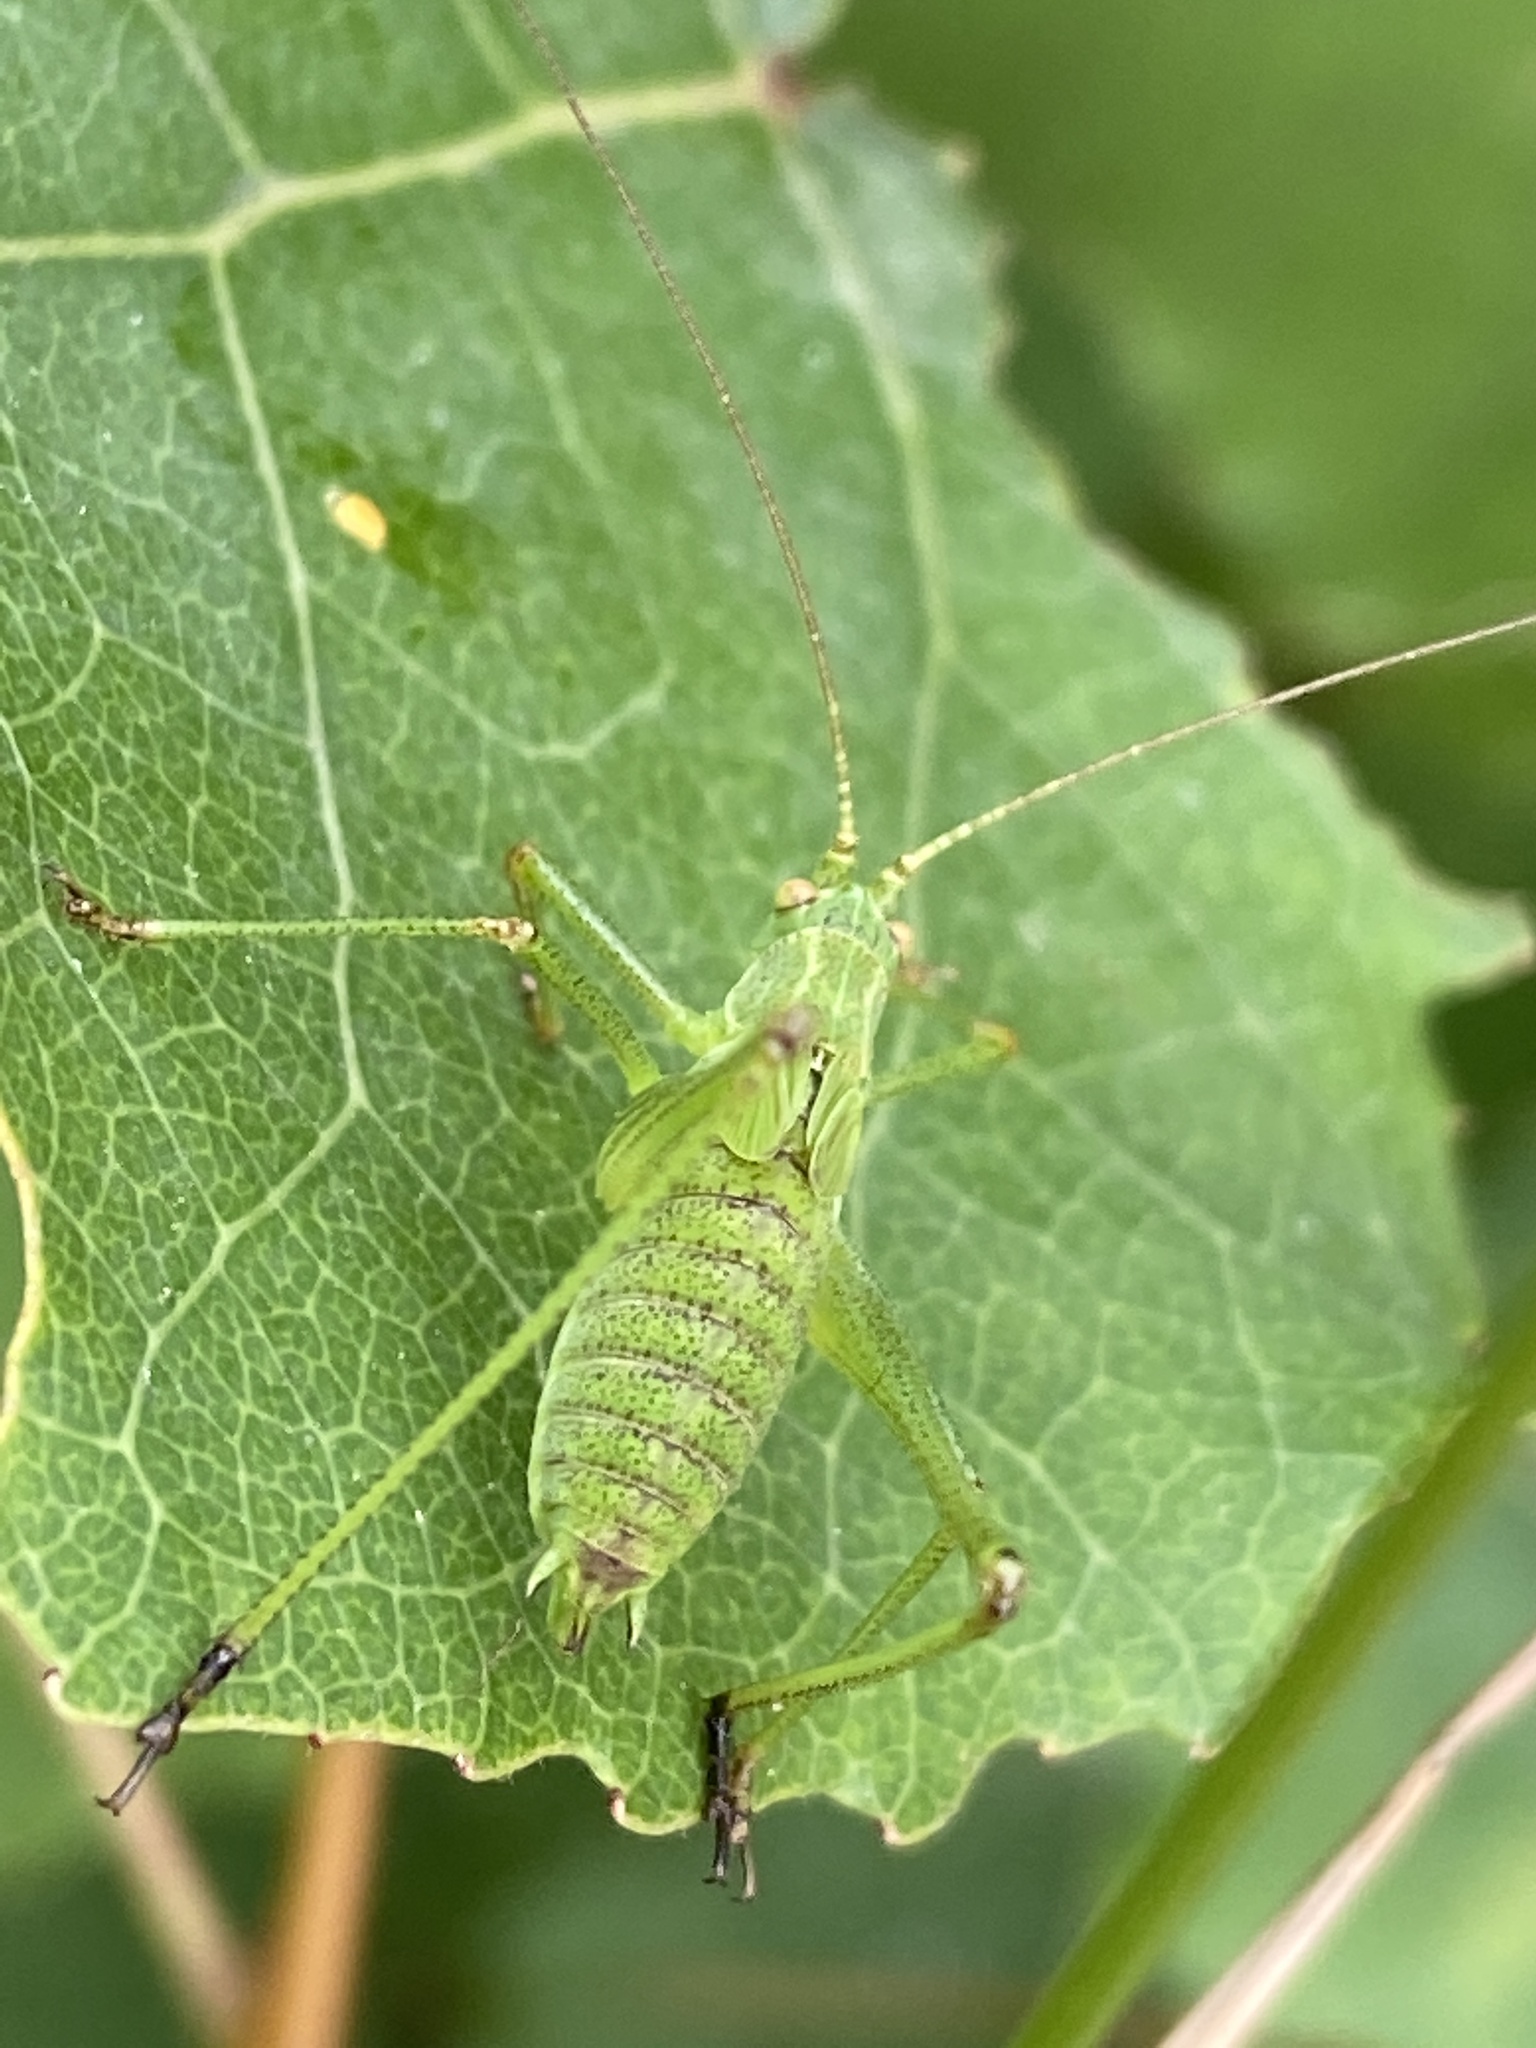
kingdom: Animalia
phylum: Arthropoda
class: Insecta
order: Orthoptera
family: Tettigoniidae
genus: Phaneroptera
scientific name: Phaneroptera falcata
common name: Sickle-bearing bush-cricket
